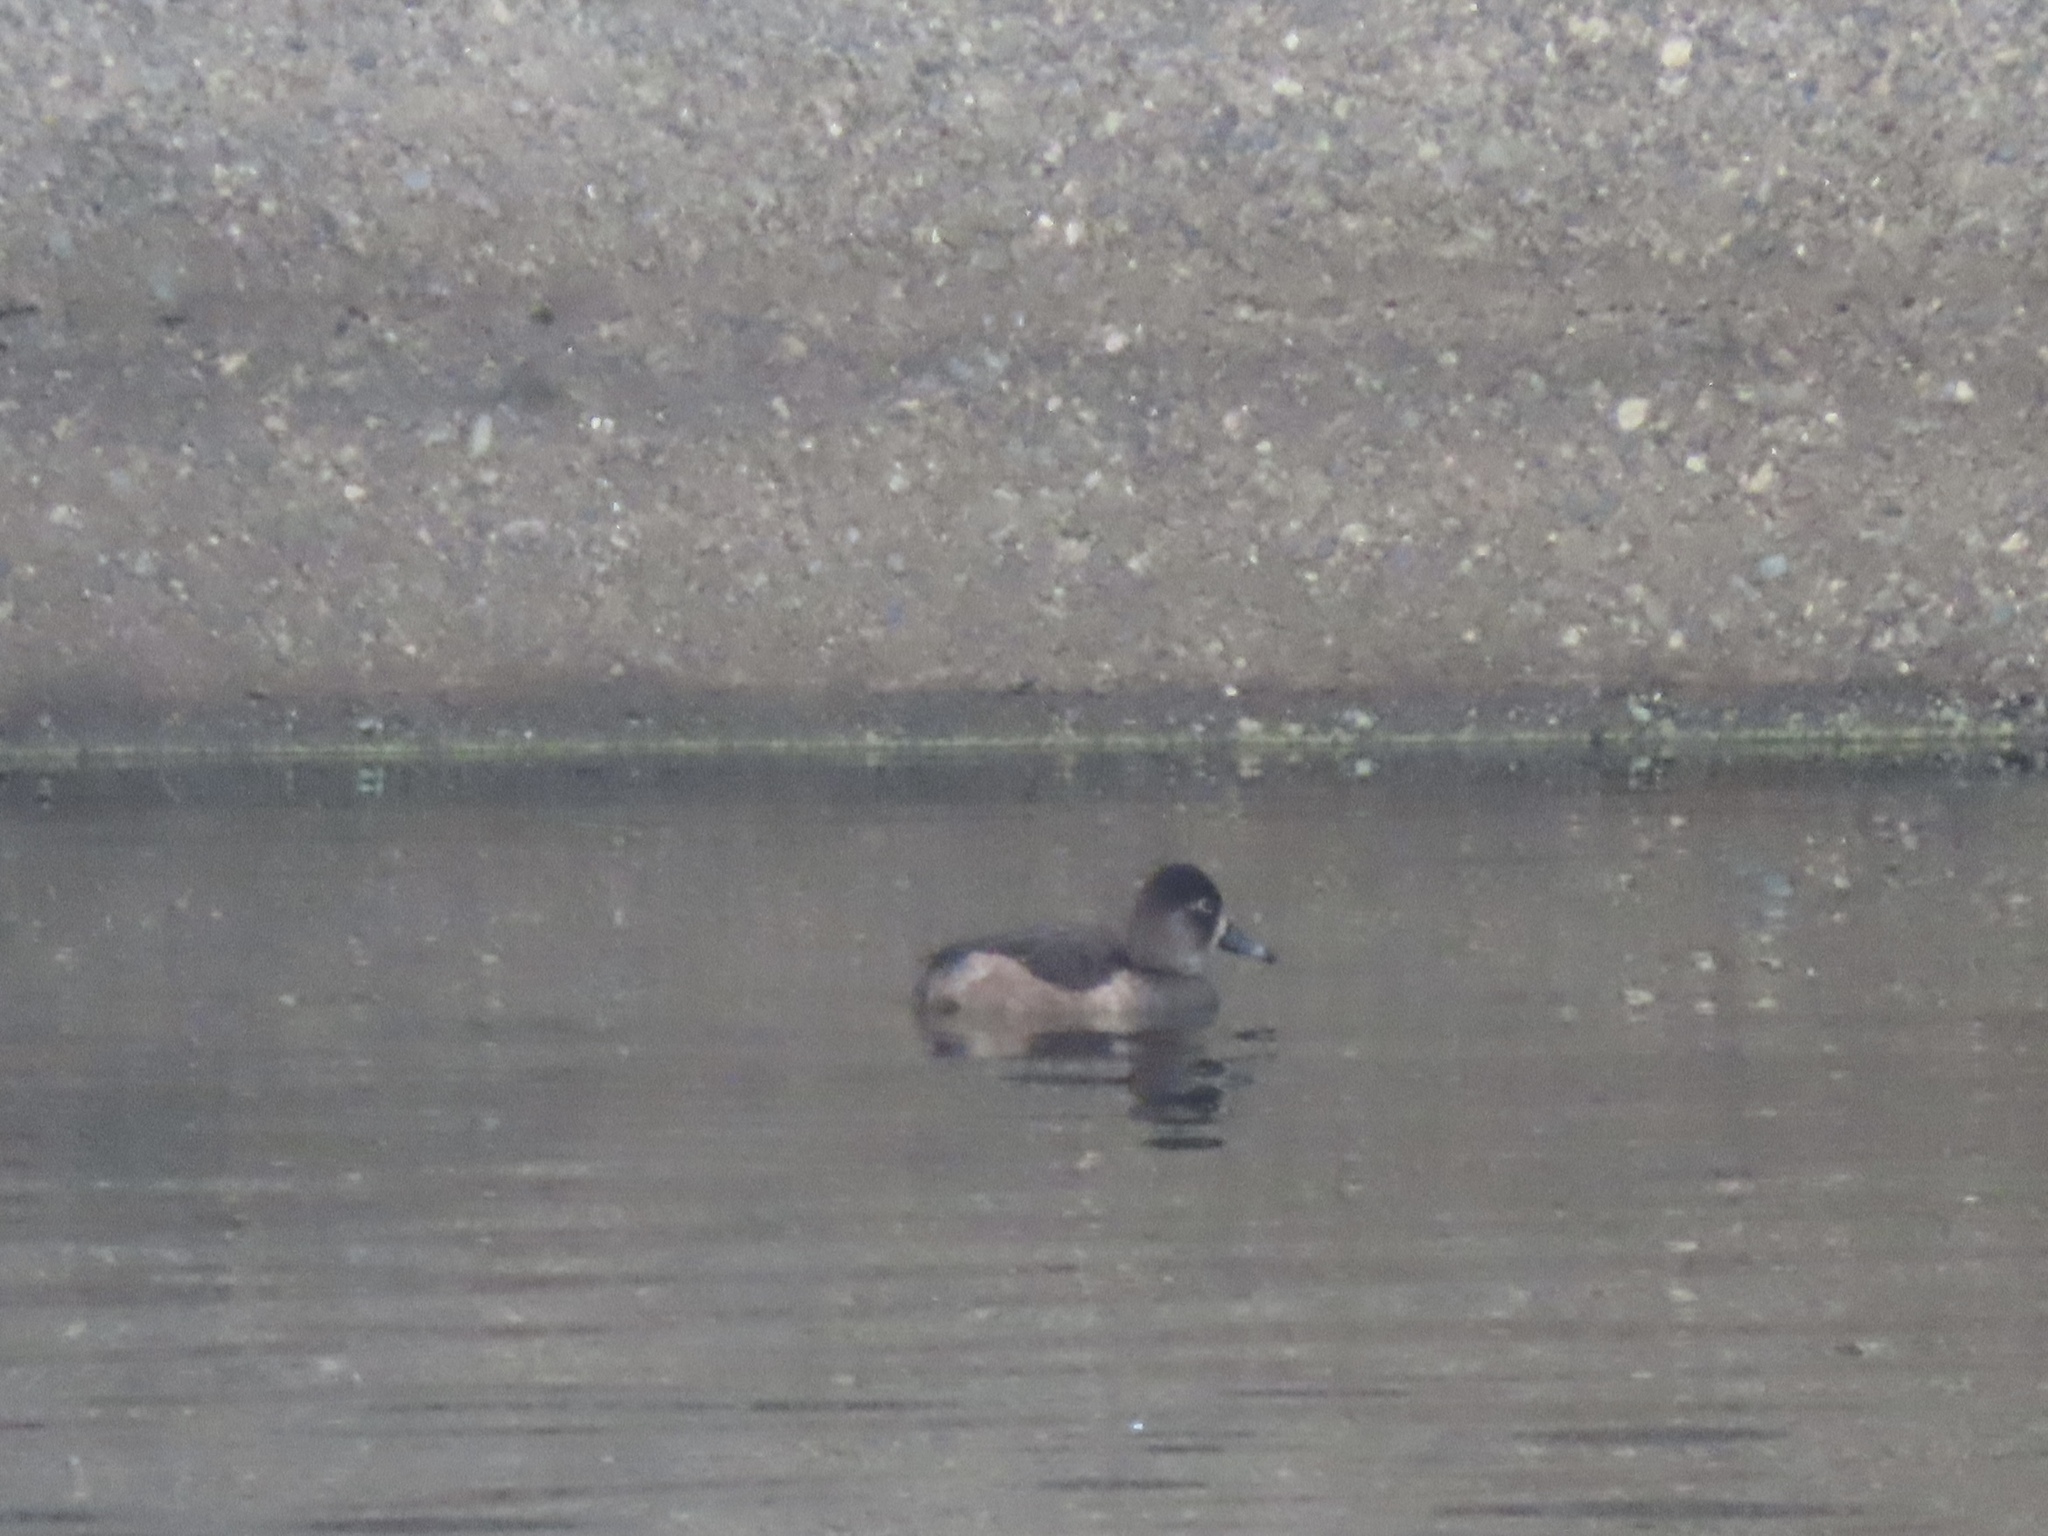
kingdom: Animalia
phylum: Chordata
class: Aves
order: Anseriformes
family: Anatidae
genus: Aythya
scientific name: Aythya collaris
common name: Ring-necked duck
